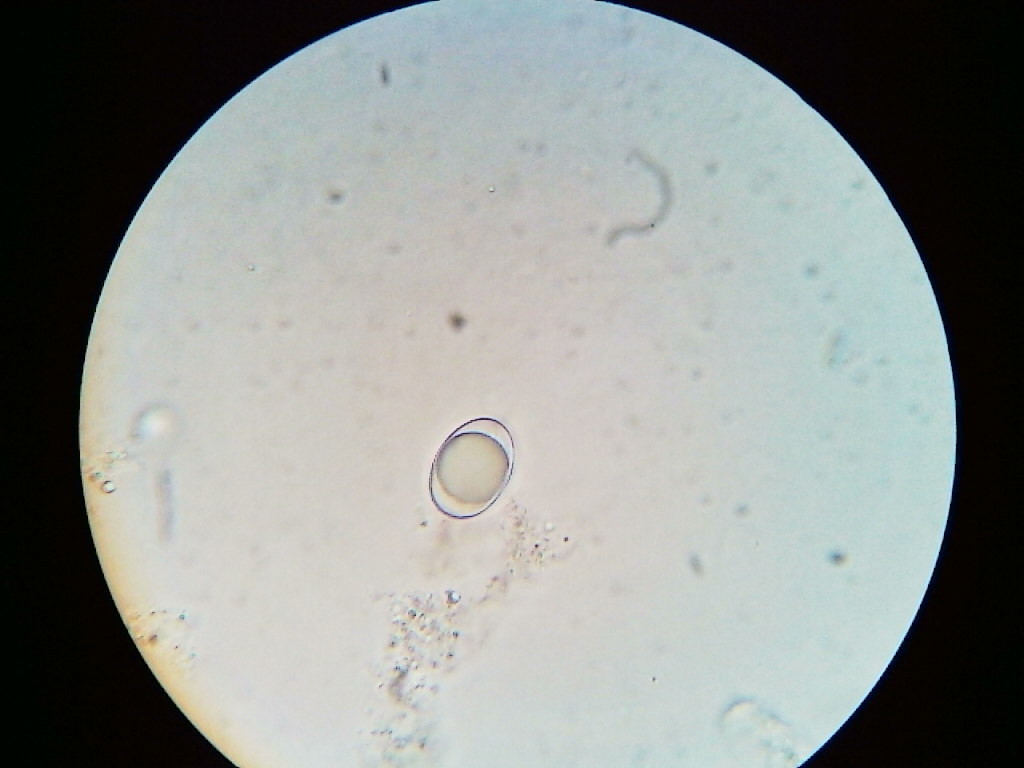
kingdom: Fungi
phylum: Ascomycota
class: Pezizomycetes
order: Pezizales
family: Helvellaceae
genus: Helvella
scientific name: Helvella acetabulum
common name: Vinegar cup
